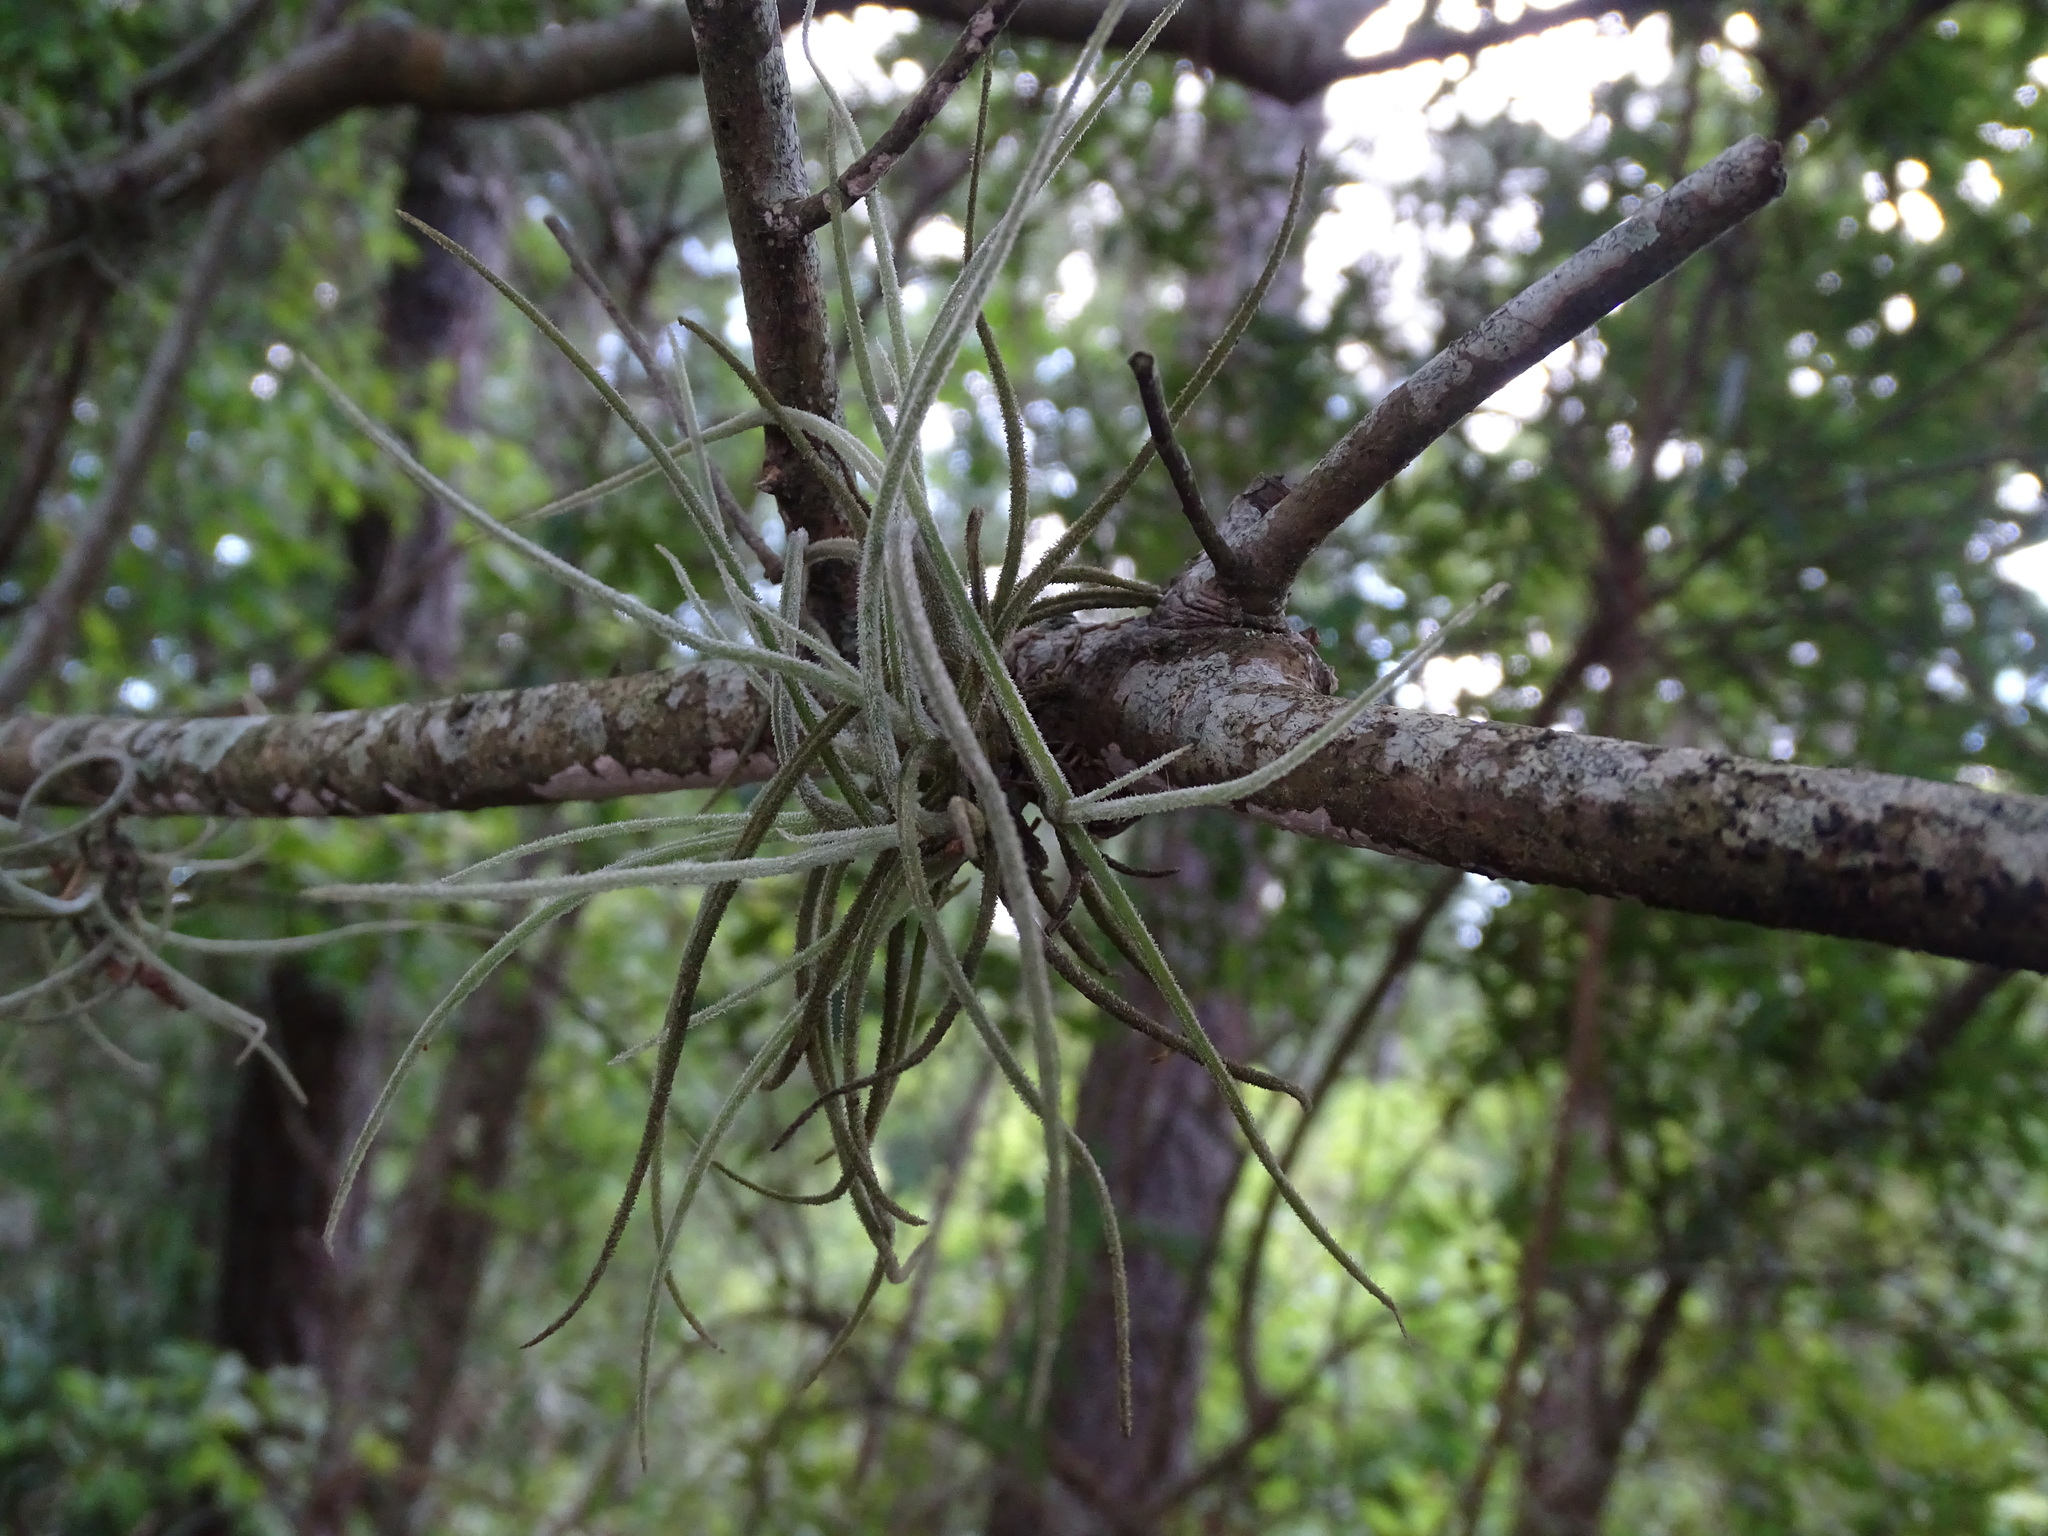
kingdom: Plantae
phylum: Tracheophyta
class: Liliopsida
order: Poales
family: Bromeliaceae
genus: Tillandsia
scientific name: Tillandsia recurvata
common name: Small ballmoss
